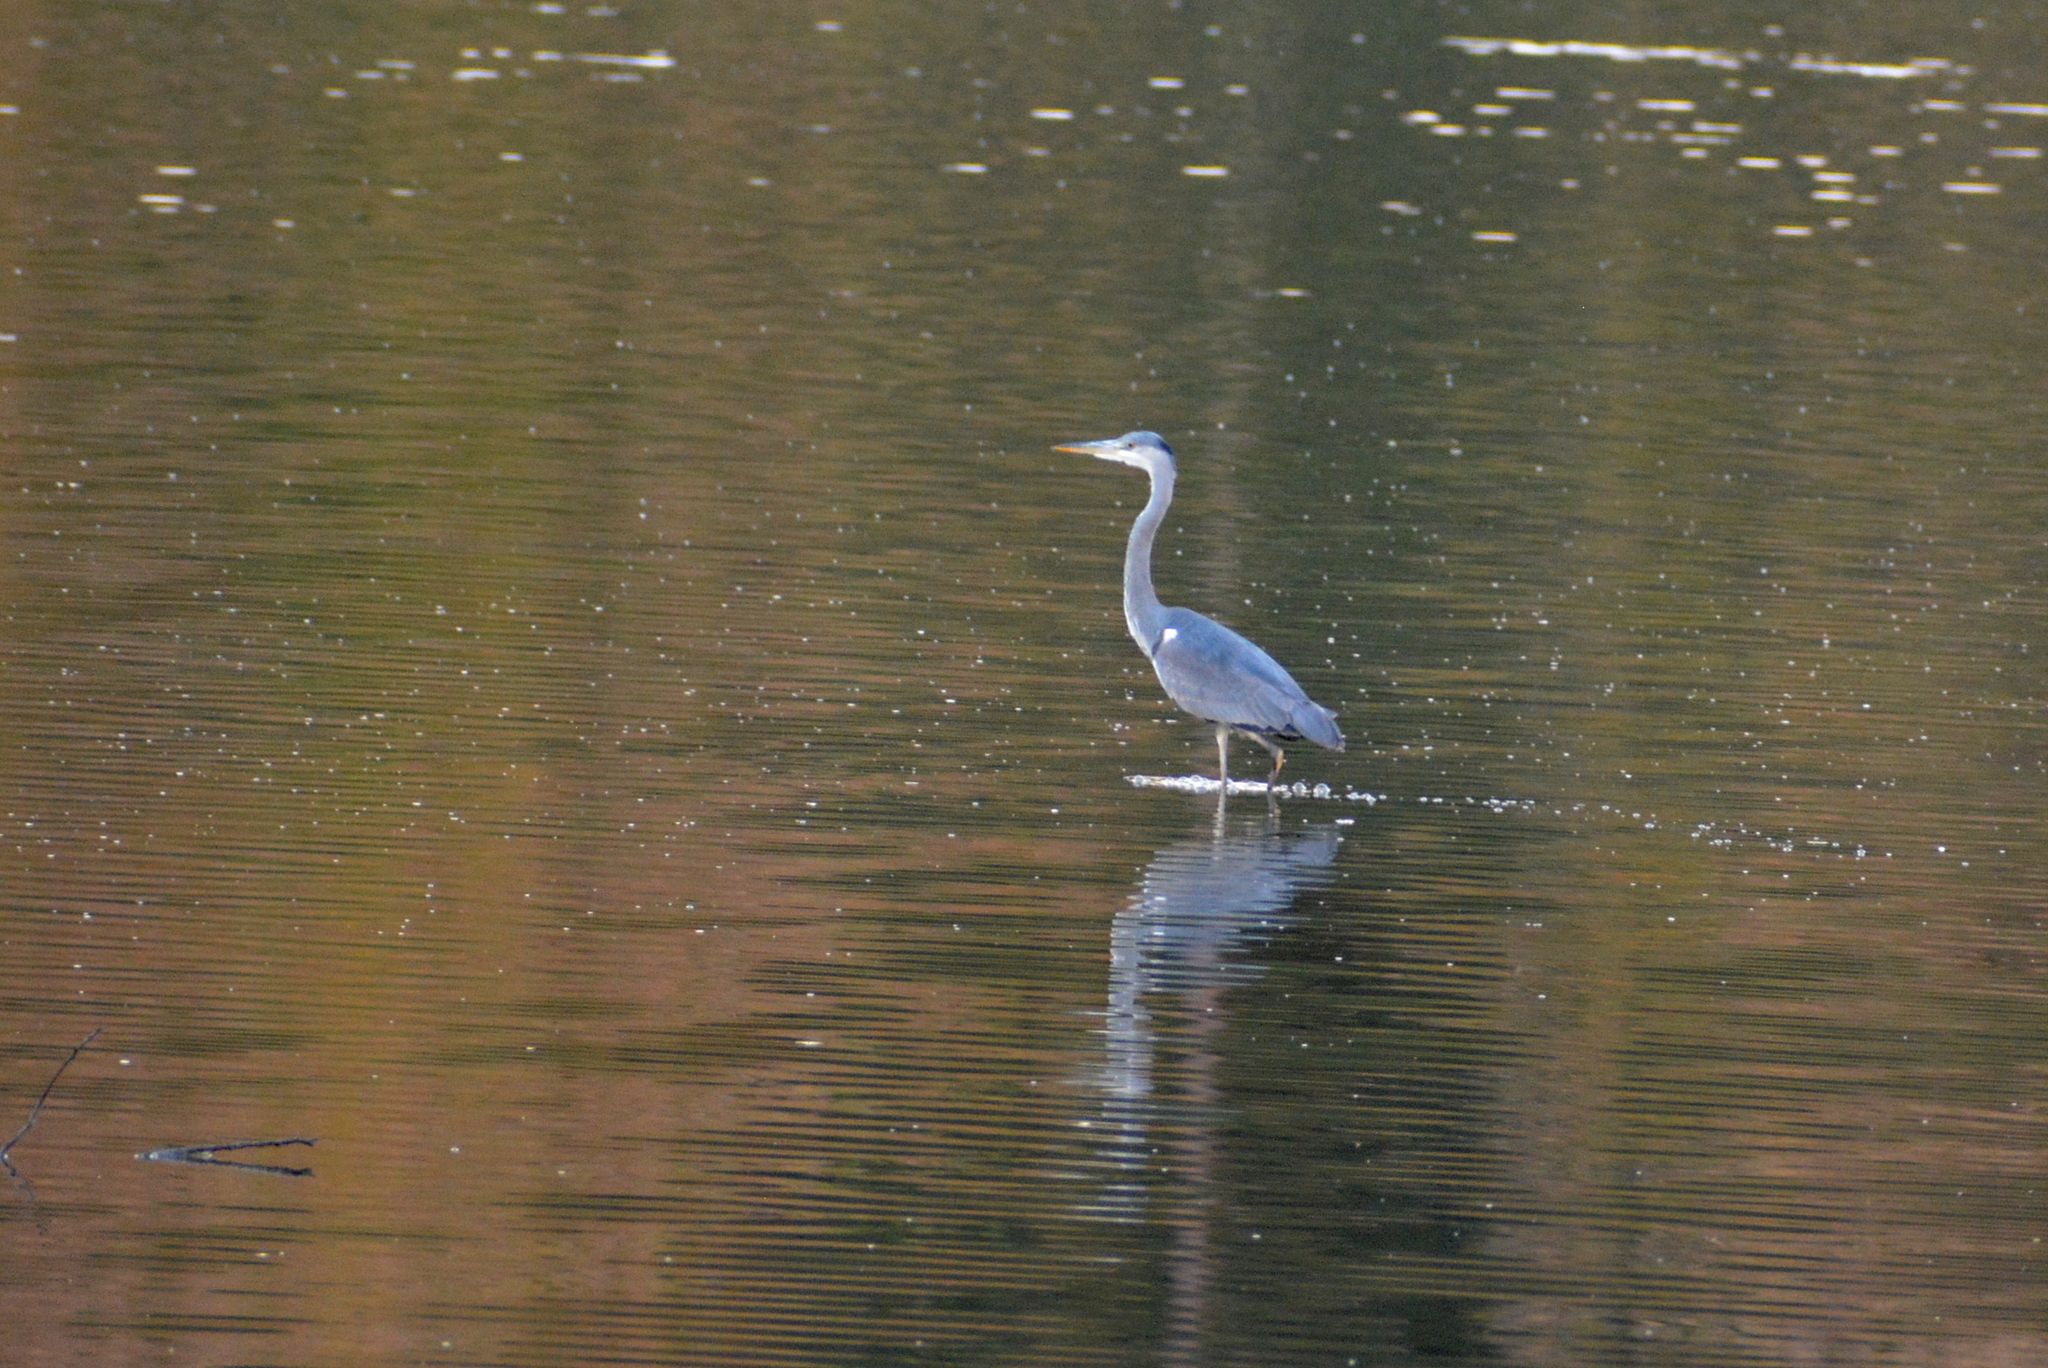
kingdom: Animalia
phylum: Chordata
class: Aves
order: Pelecaniformes
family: Ardeidae
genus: Ardea
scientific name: Ardea cinerea
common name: Grey heron
